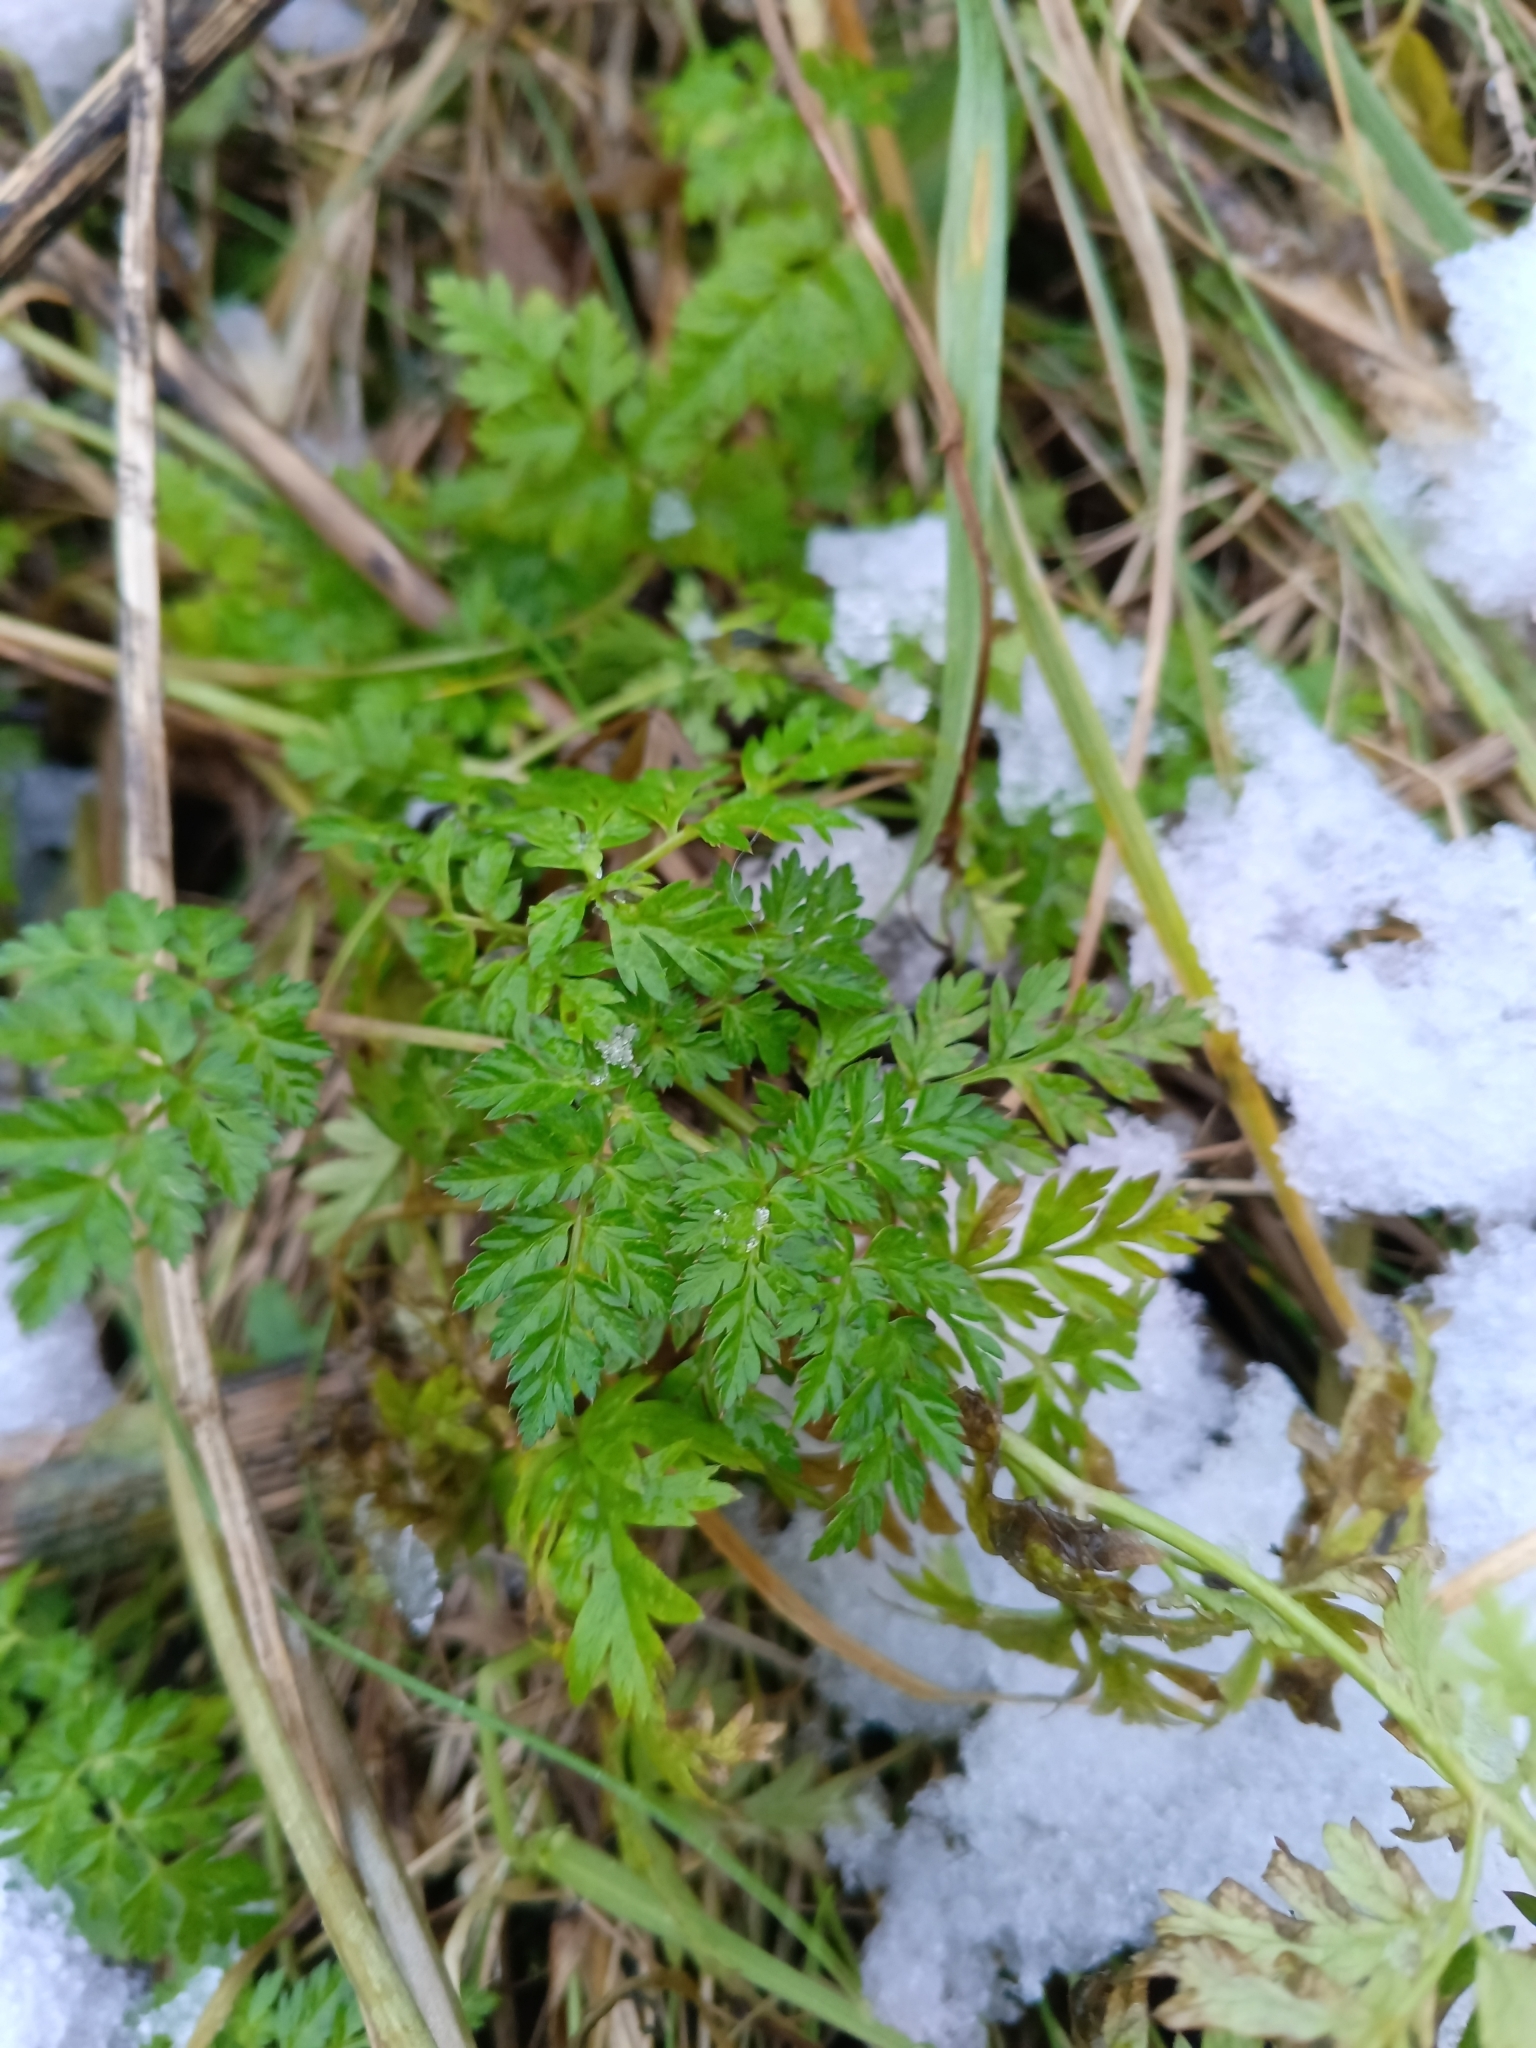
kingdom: Plantae
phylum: Tracheophyta
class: Magnoliopsida
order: Apiales
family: Apiaceae
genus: Anthriscus
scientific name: Anthriscus sylvestris
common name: Cow parsley
